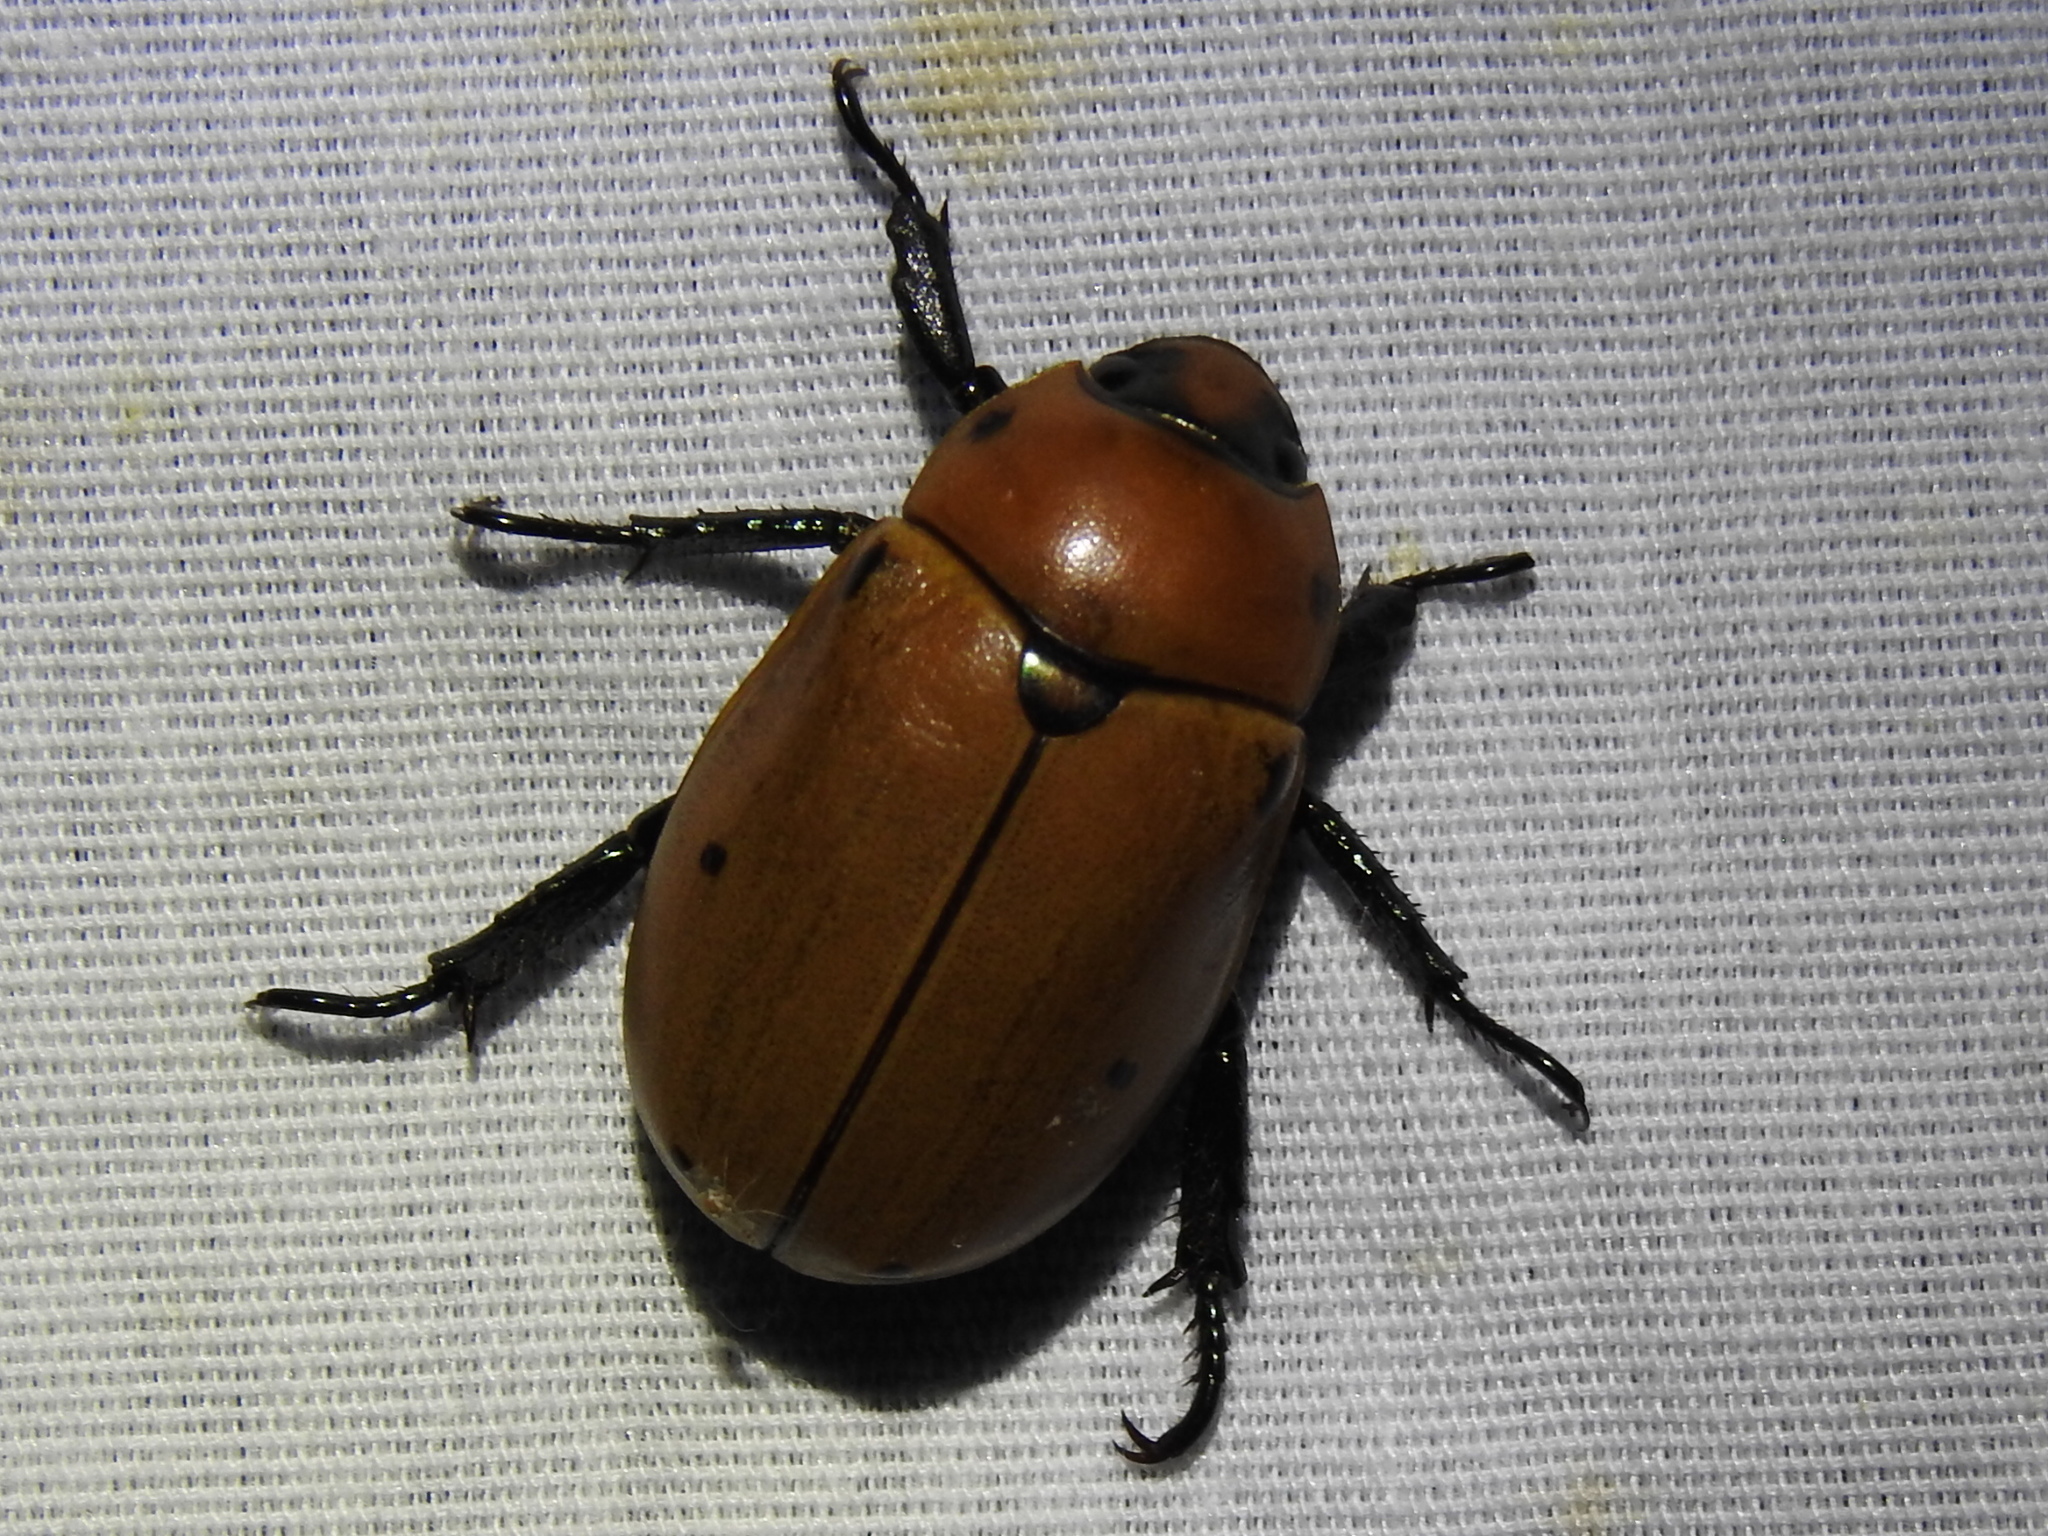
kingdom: Animalia
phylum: Arthropoda
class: Insecta
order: Coleoptera
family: Scarabaeidae
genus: Pelidnota
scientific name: Pelidnota punctata
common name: Grapevine beetle
